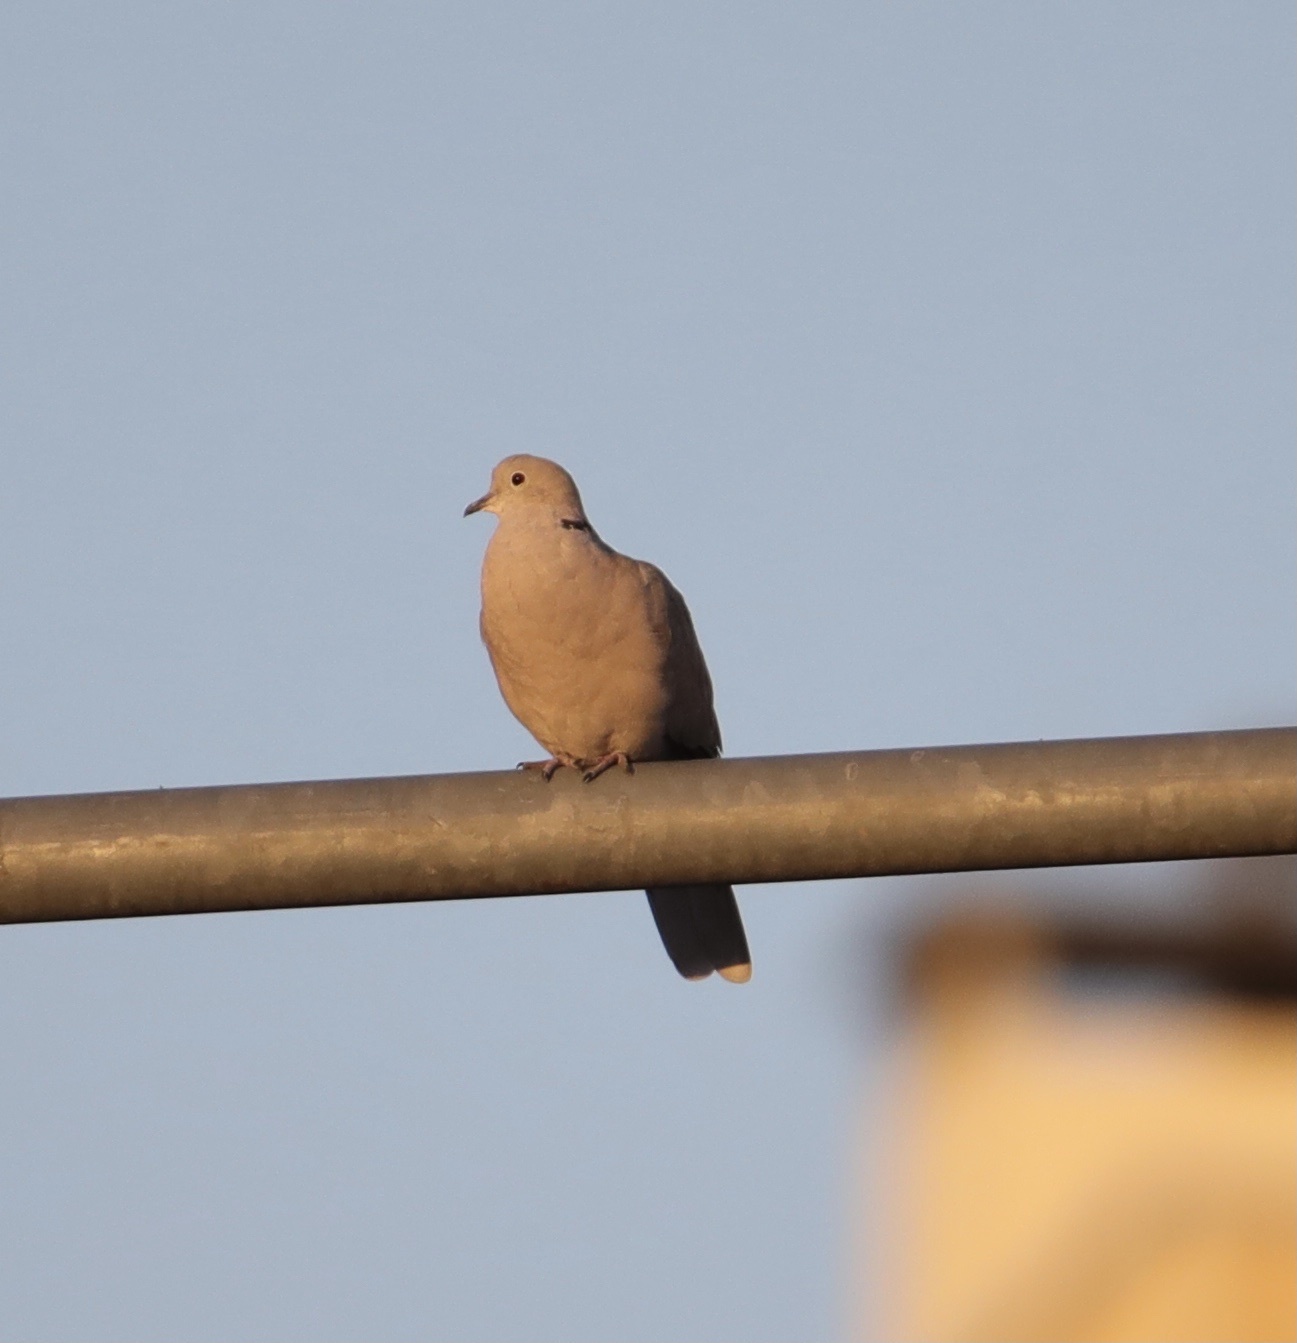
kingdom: Animalia
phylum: Chordata
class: Aves
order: Columbiformes
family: Columbidae
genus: Streptopelia
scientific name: Streptopelia decaocto
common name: Eurasian collared dove
